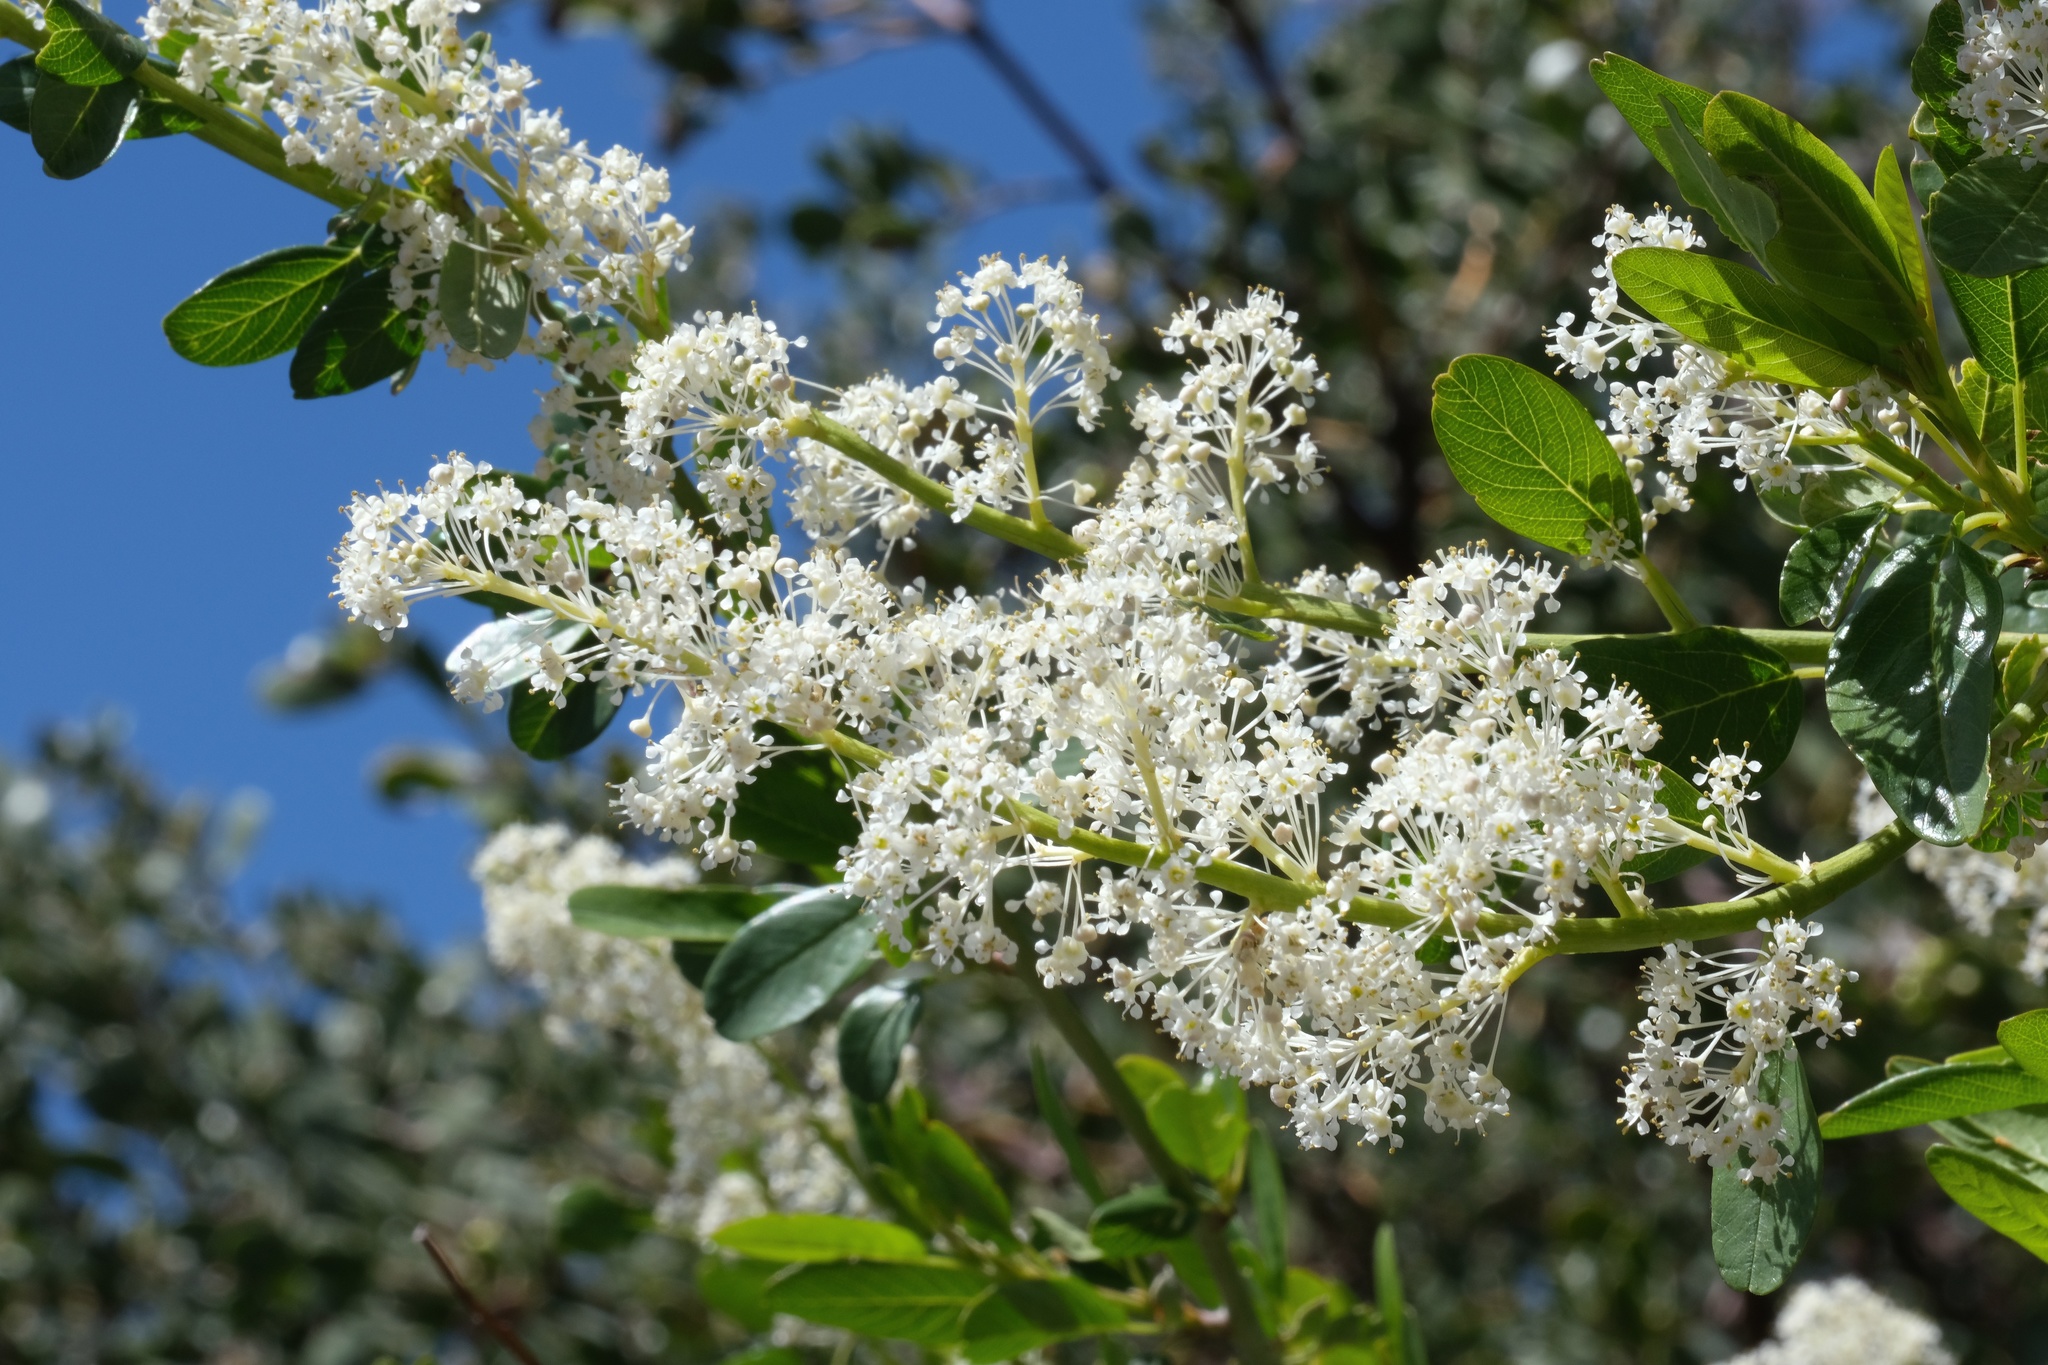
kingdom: Plantae
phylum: Tracheophyta
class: Magnoliopsida
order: Rosales
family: Rhamnaceae
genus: Ceanothus
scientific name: Ceanothus palmeri
